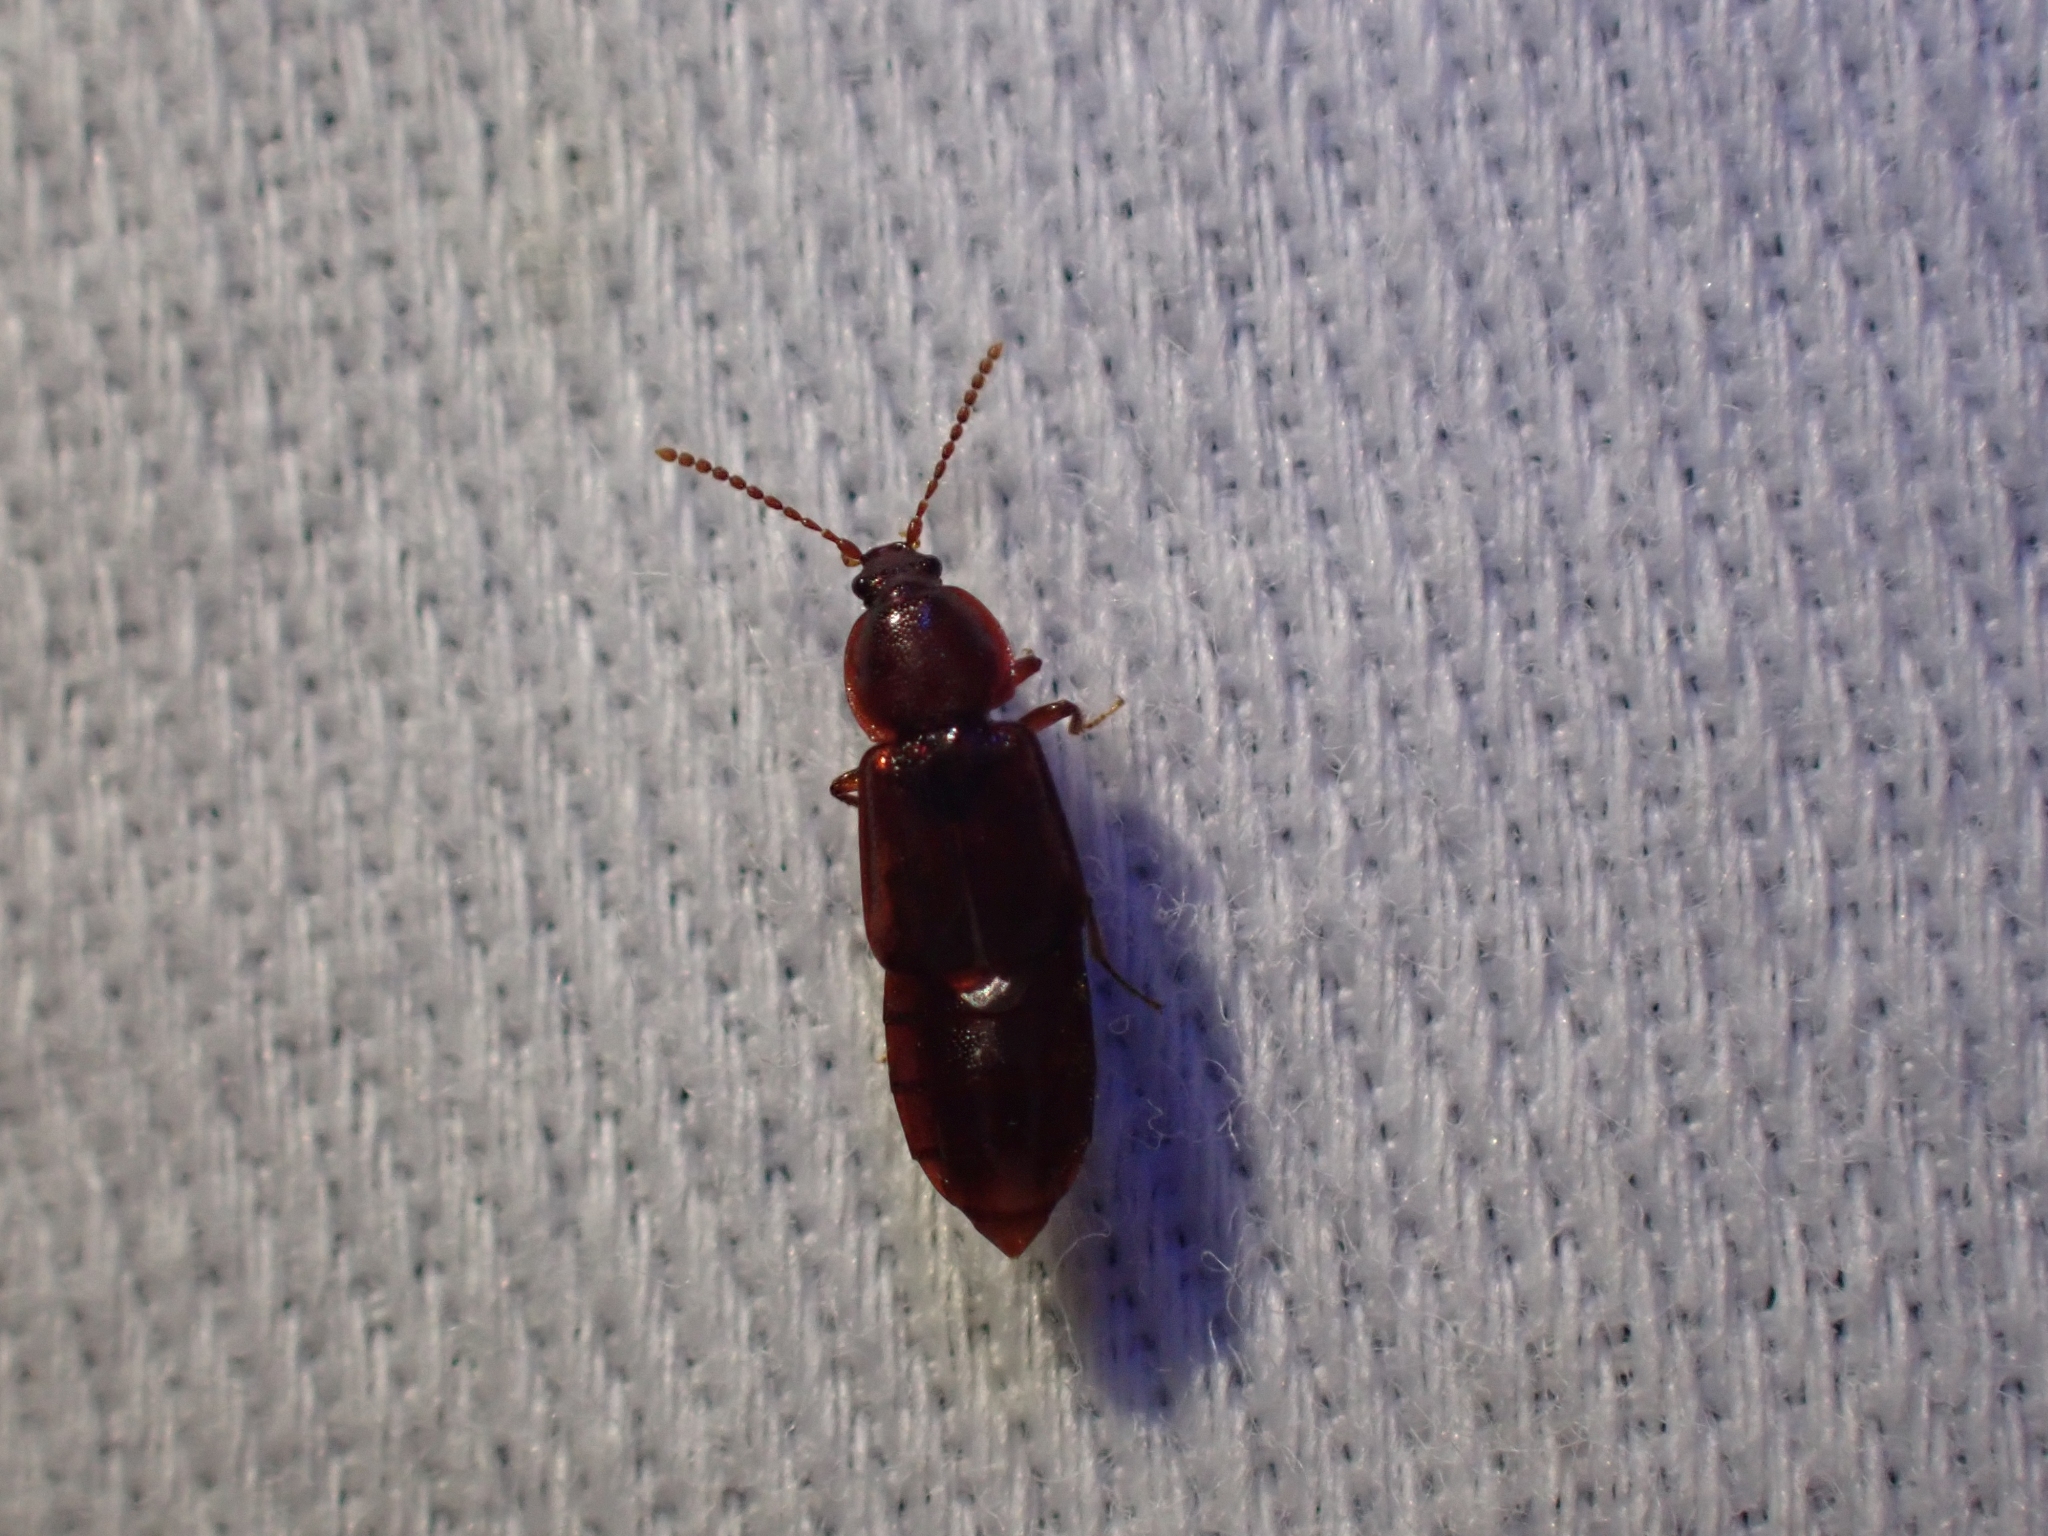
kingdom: Animalia
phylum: Arthropoda
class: Insecta
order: Coleoptera
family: Staphylinidae
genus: Acidota
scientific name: Acidota crenata
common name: Staph beetle
